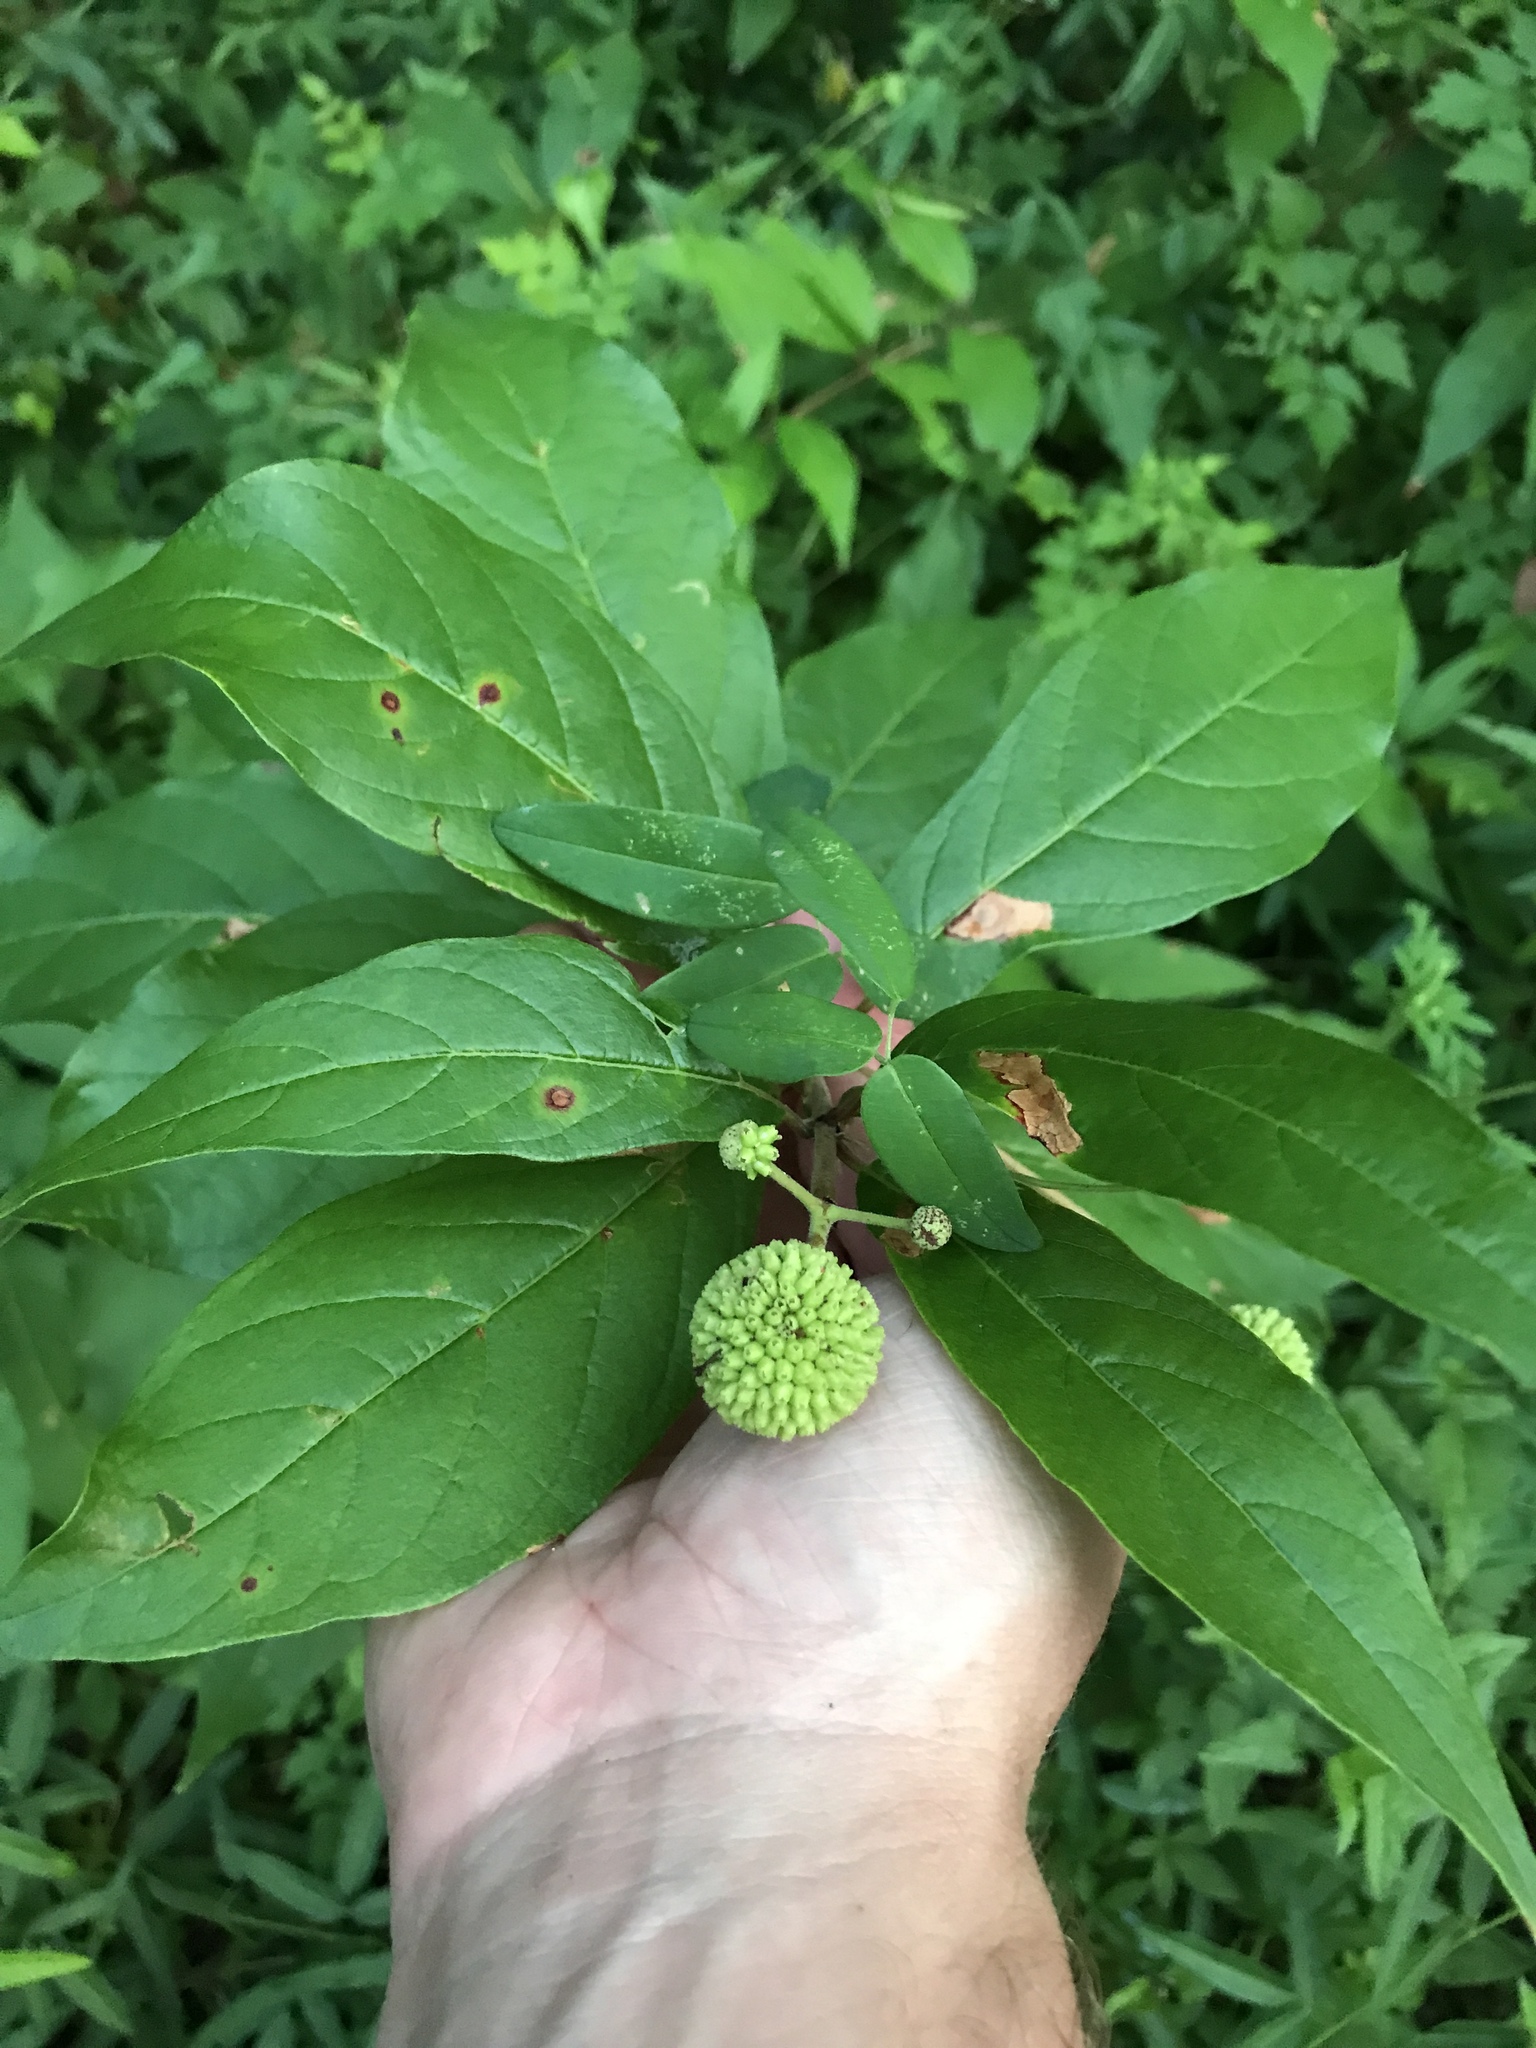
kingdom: Plantae
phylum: Tracheophyta
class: Magnoliopsida
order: Gentianales
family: Rubiaceae
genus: Cephalanthus
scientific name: Cephalanthus occidentalis
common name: Button-willow
